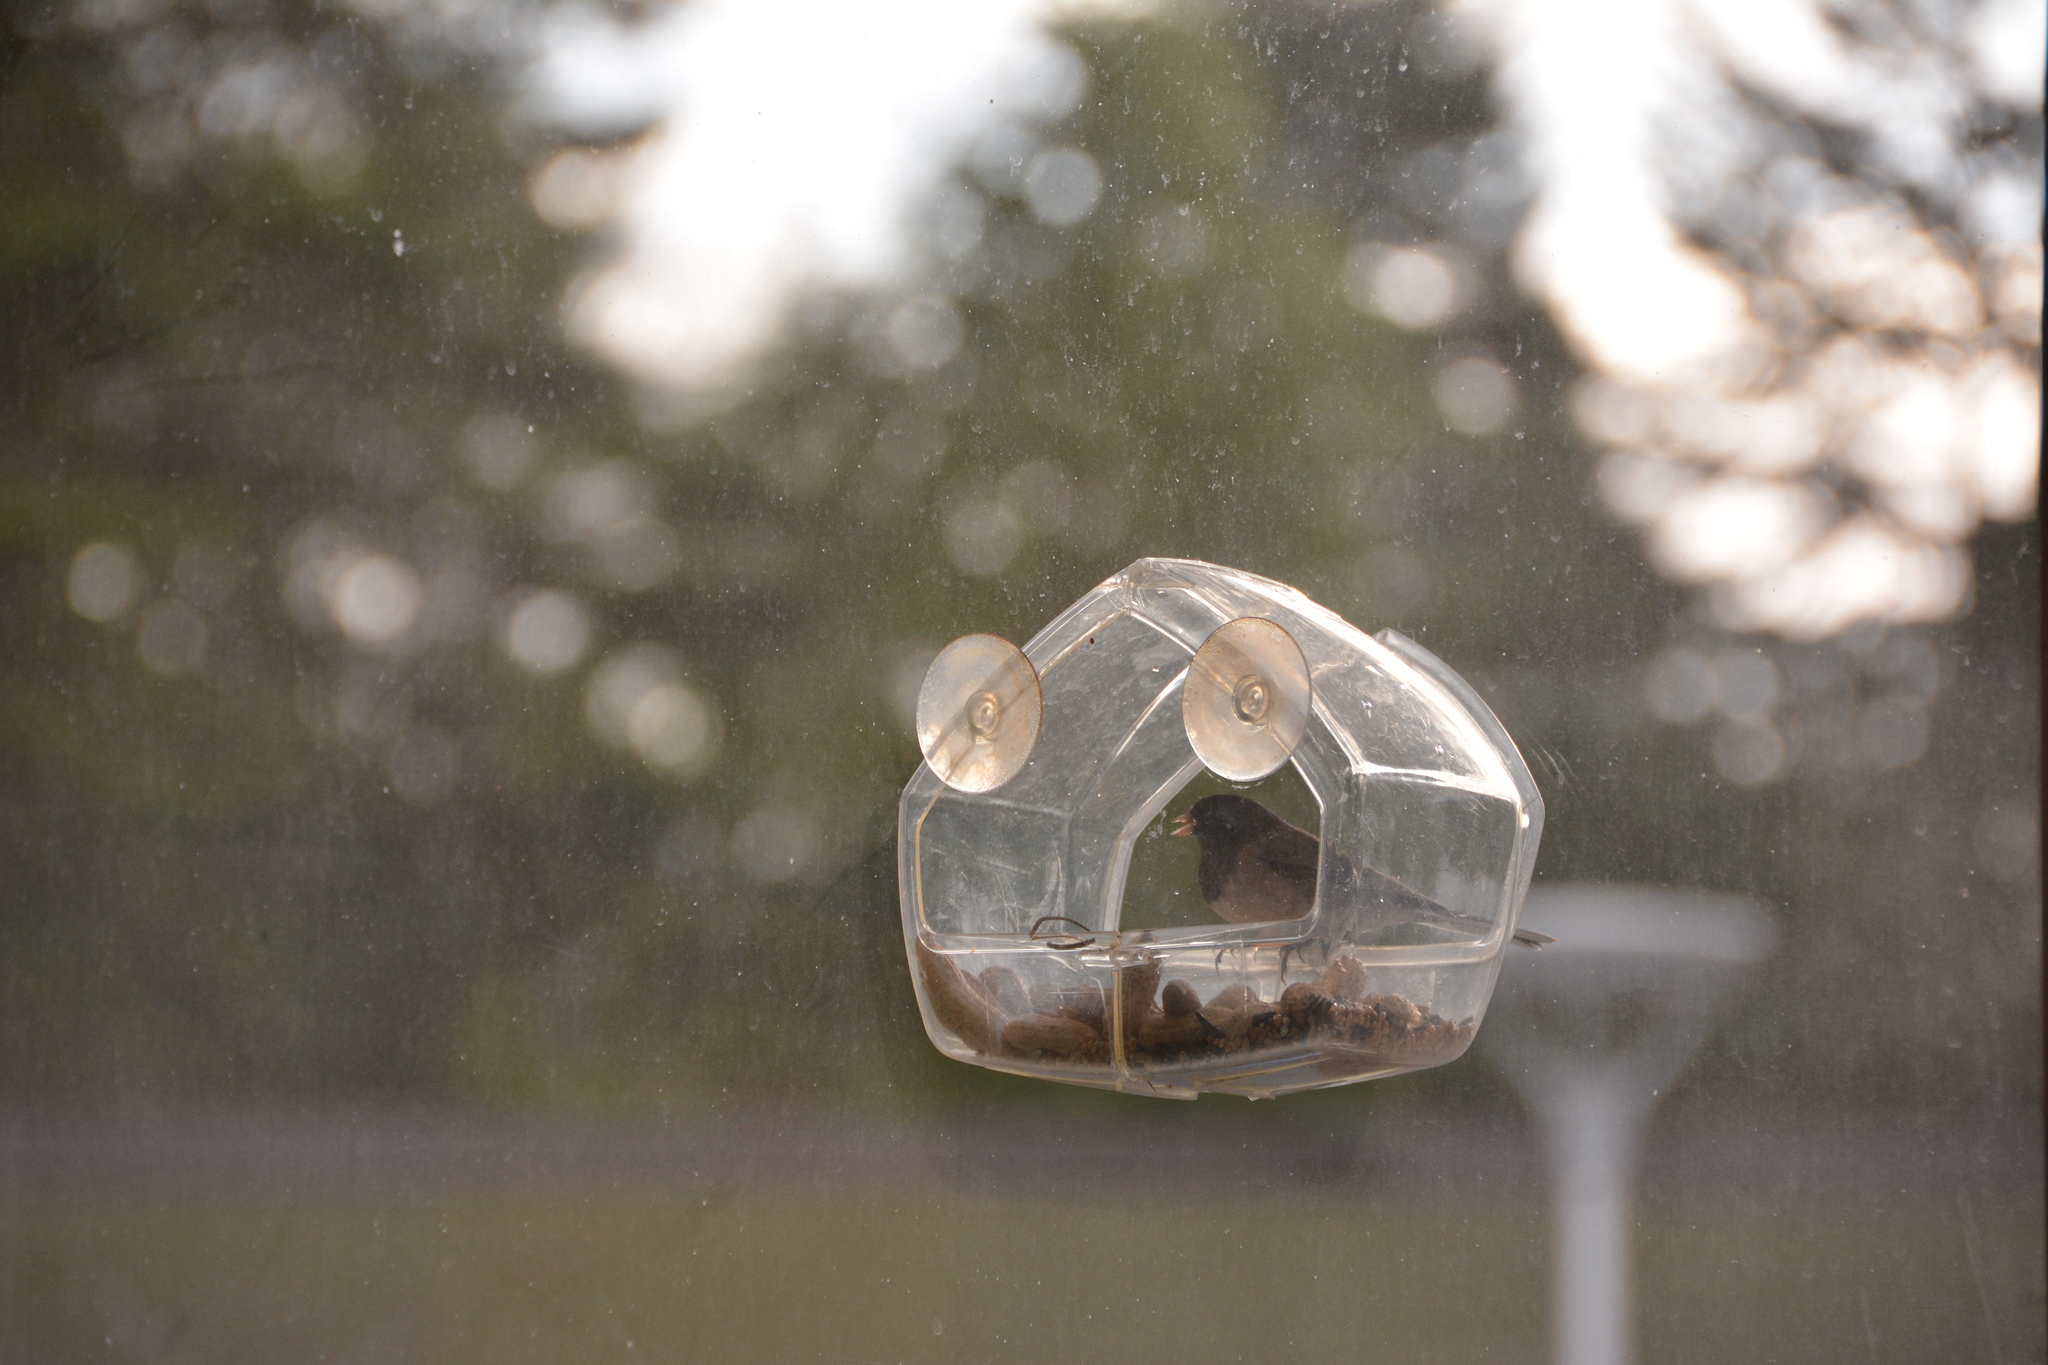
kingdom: Animalia
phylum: Chordata
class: Aves
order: Passeriformes
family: Passerellidae
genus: Junco
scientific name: Junco hyemalis
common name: Dark-eyed junco
